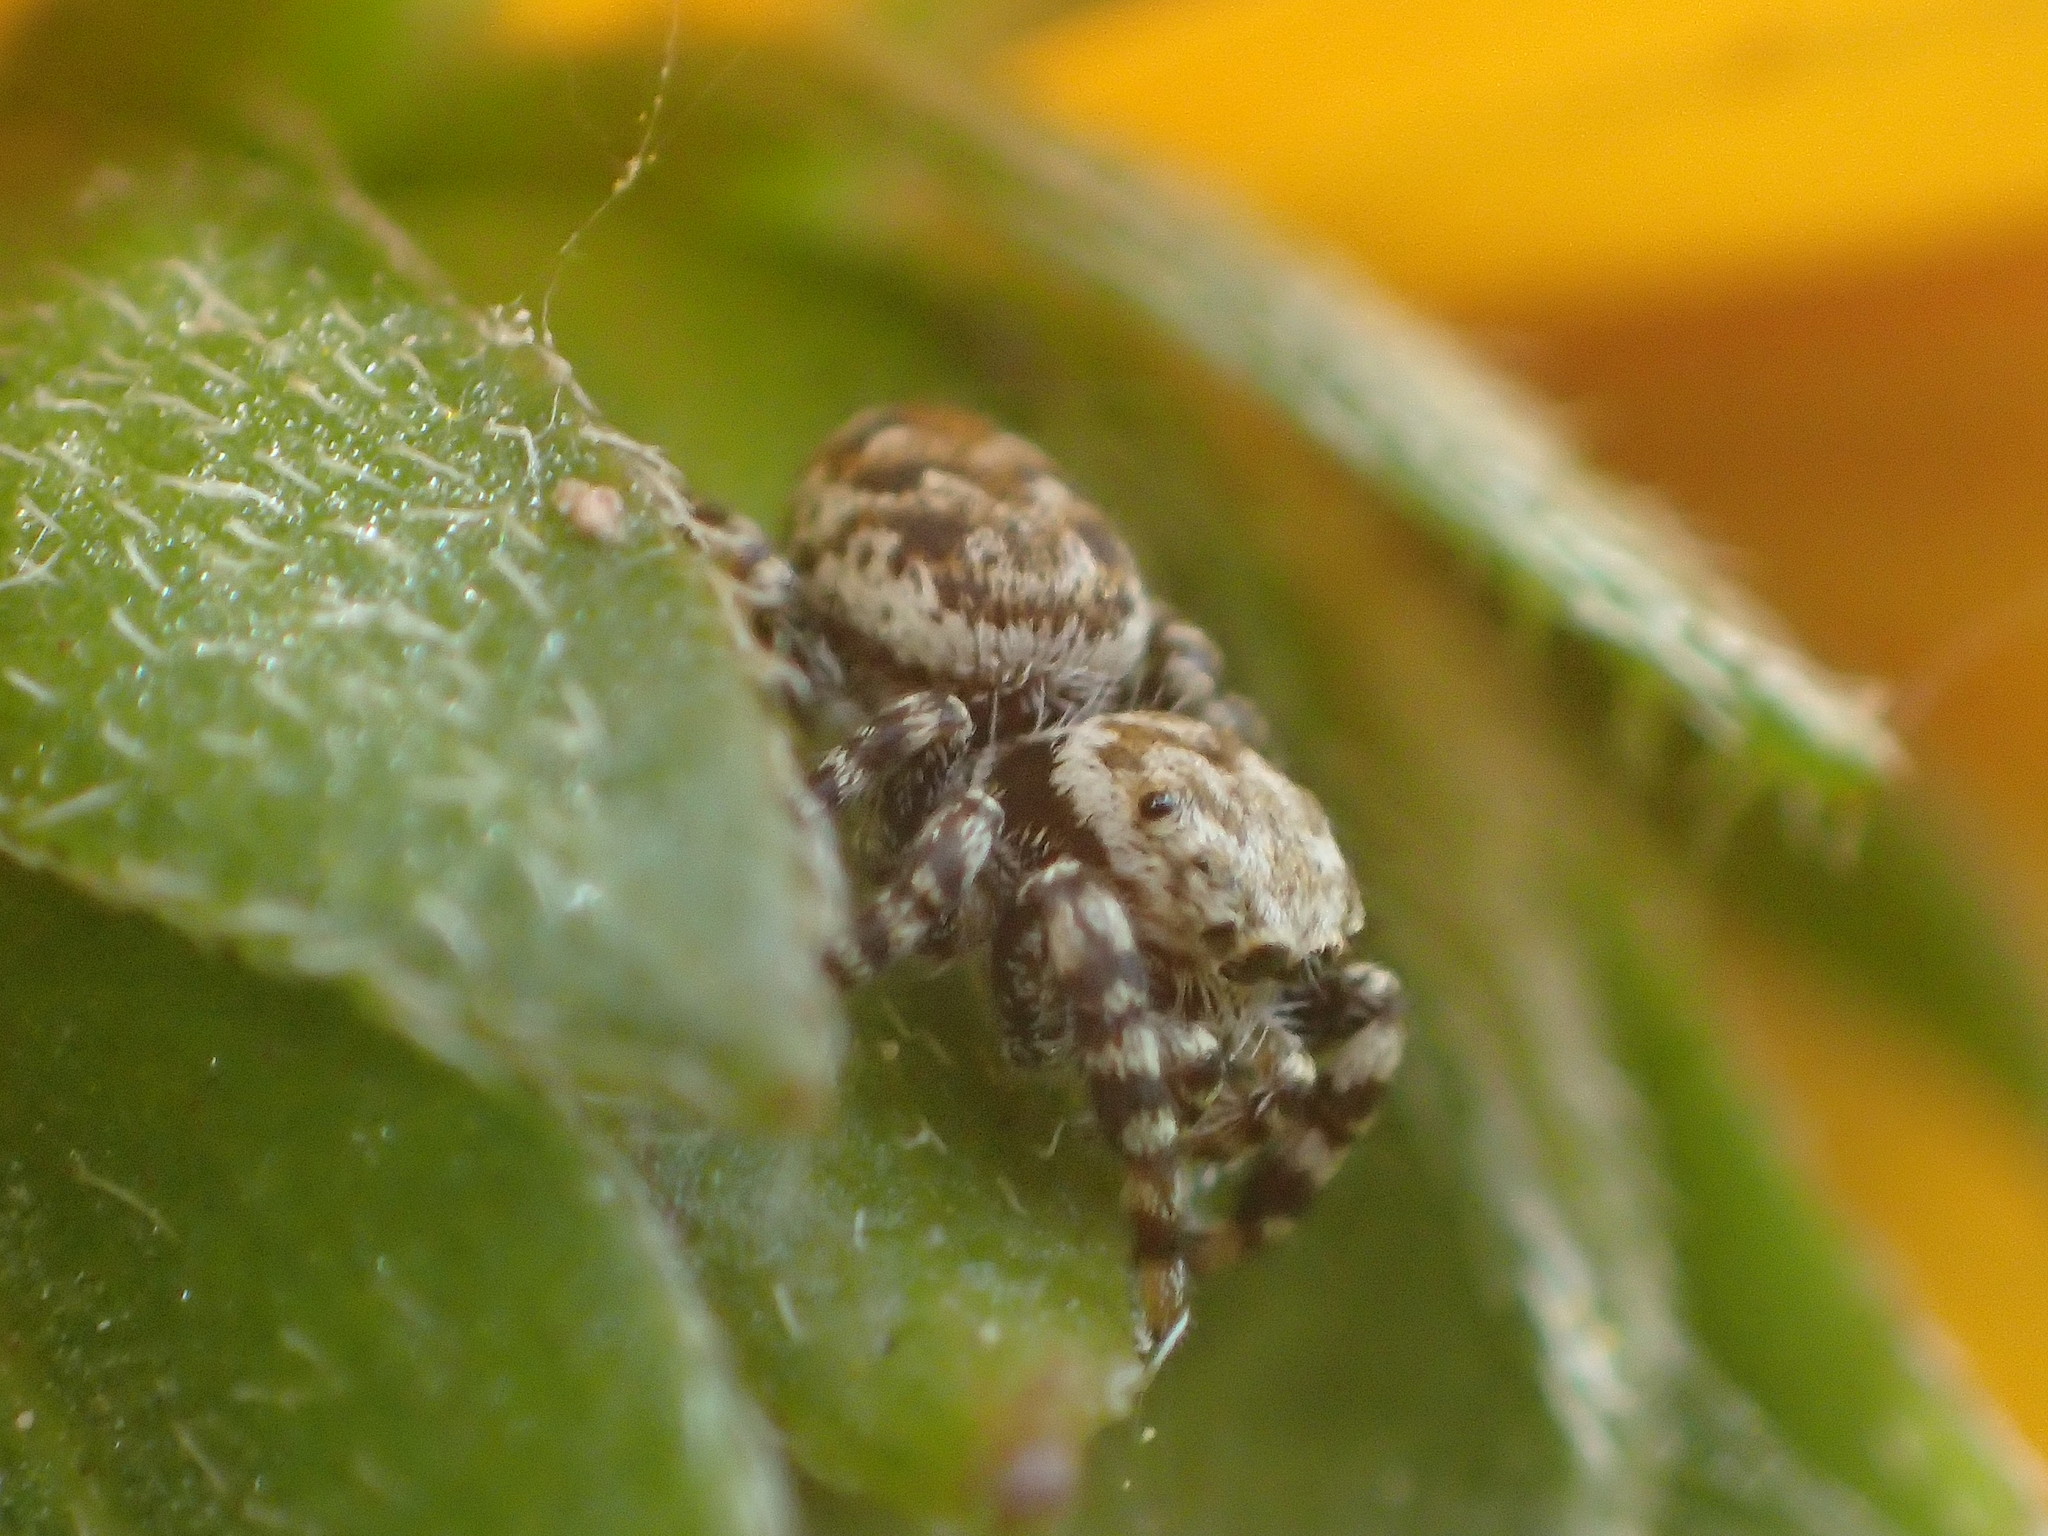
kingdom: Animalia
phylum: Arthropoda
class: Arachnida
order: Araneae
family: Salticidae
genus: Pelegrina
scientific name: Pelegrina galathea
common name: Jumping spiders
